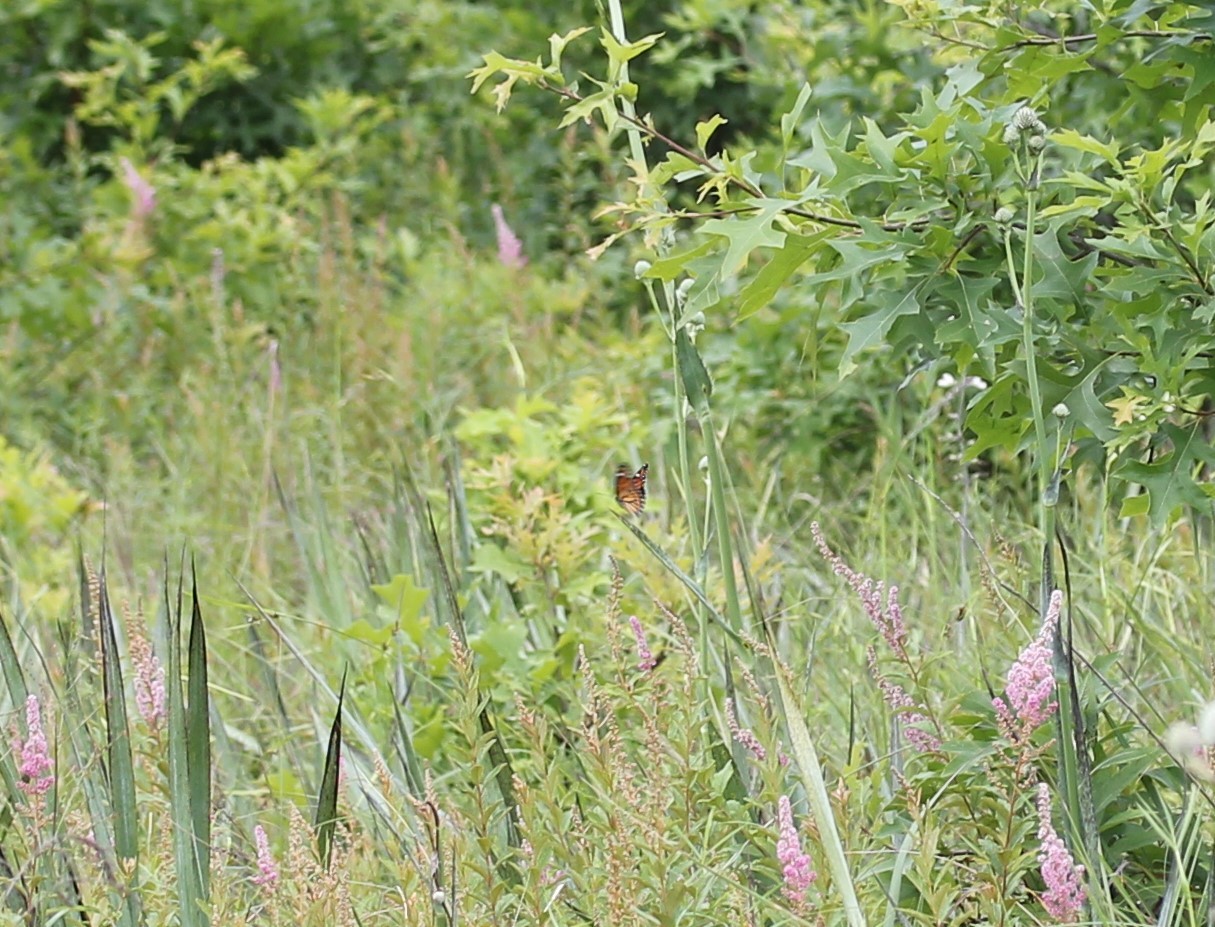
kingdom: Animalia
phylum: Arthropoda
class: Insecta
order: Lepidoptera
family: Nymphalidae
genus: Limenitis
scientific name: Limenitis archippus
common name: Viceroy
